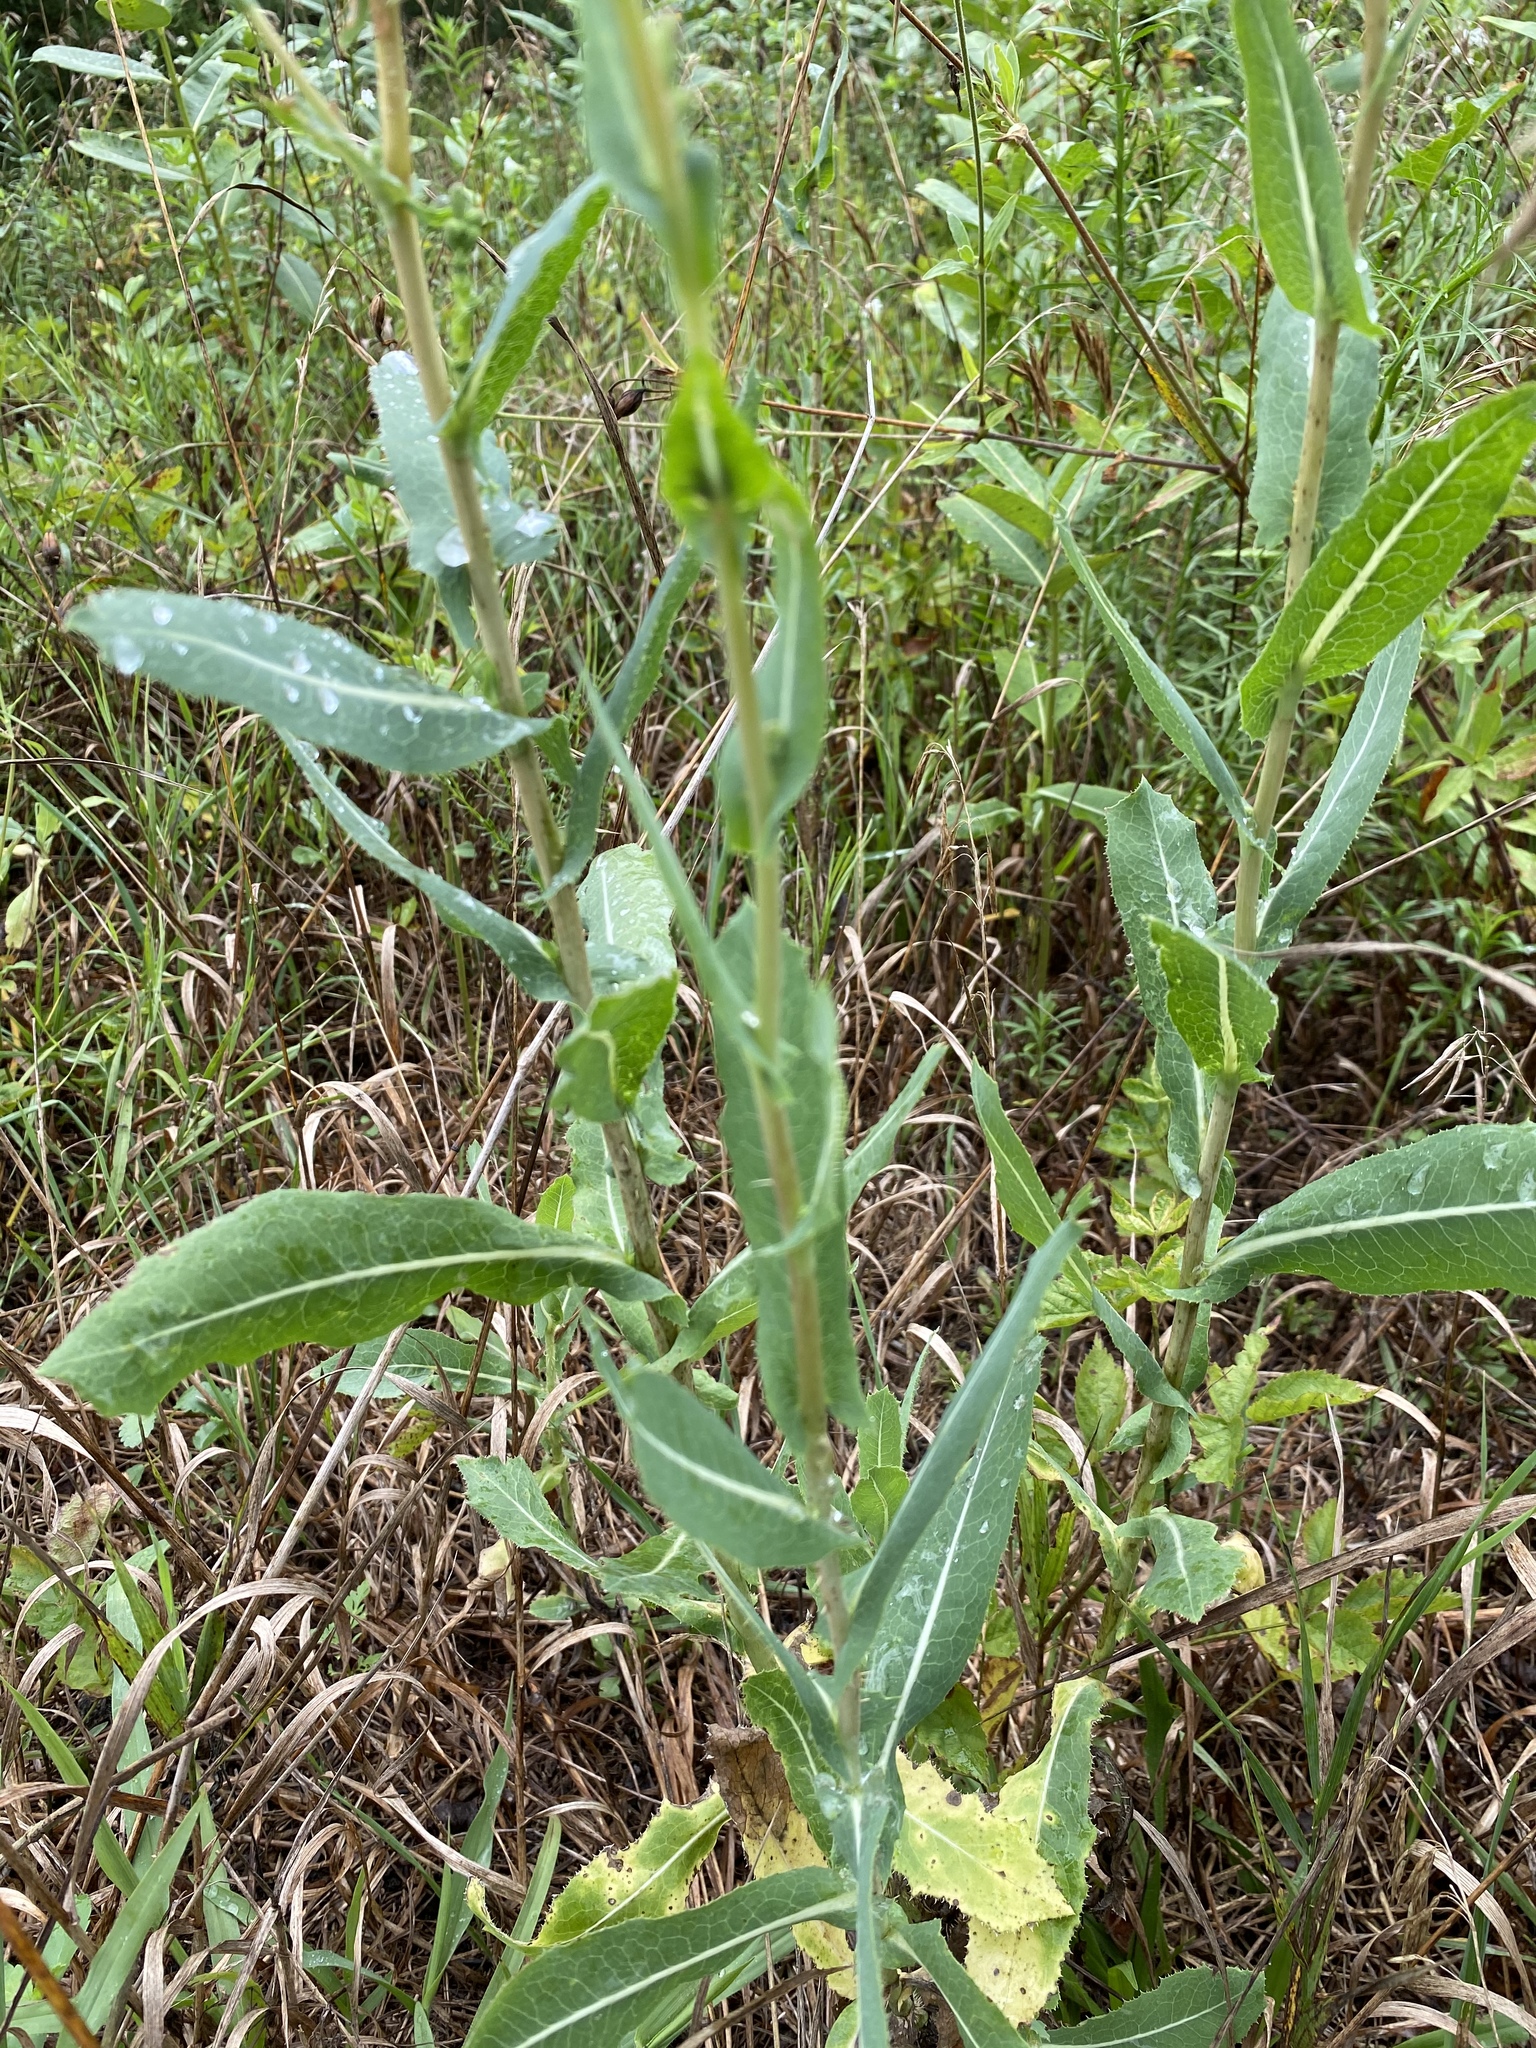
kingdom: Plantae
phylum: Tracheophyta
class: Magnoliopsida
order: Asterales
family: Asteraceae
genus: Lactuca
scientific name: Lactuca serriola
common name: Prickly lettuce
